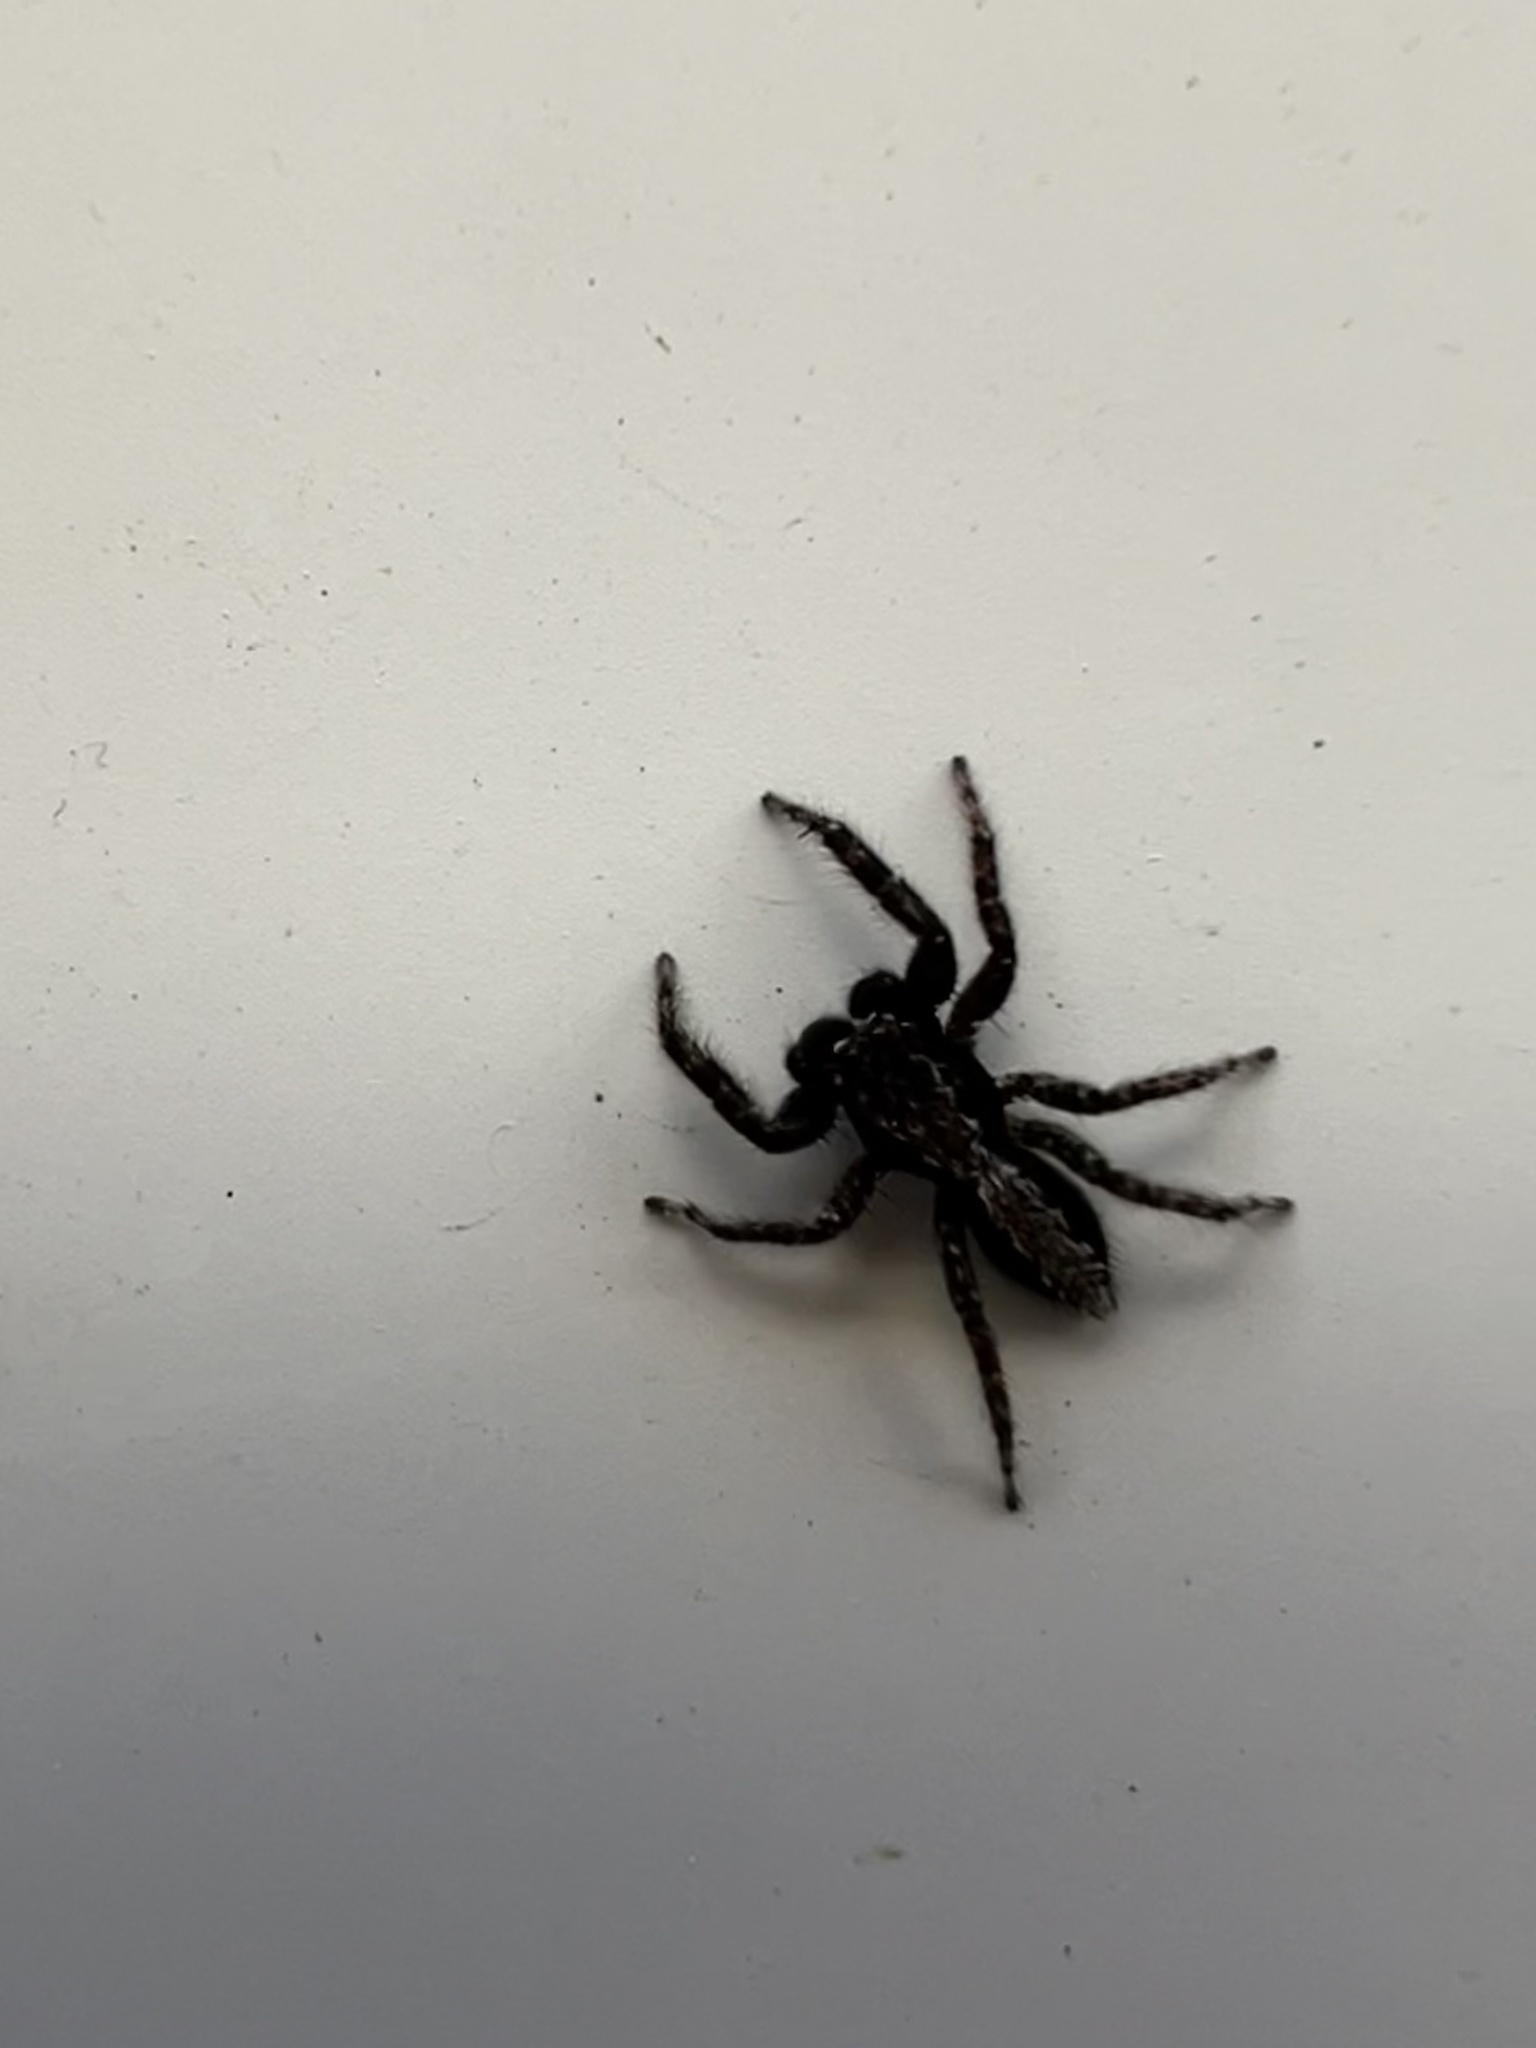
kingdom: Animalia
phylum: Arthropoda
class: Arachnida
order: Araneae
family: Salticidae
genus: Platycryptus
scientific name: Platycryptus californicus
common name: Jumping spiders
